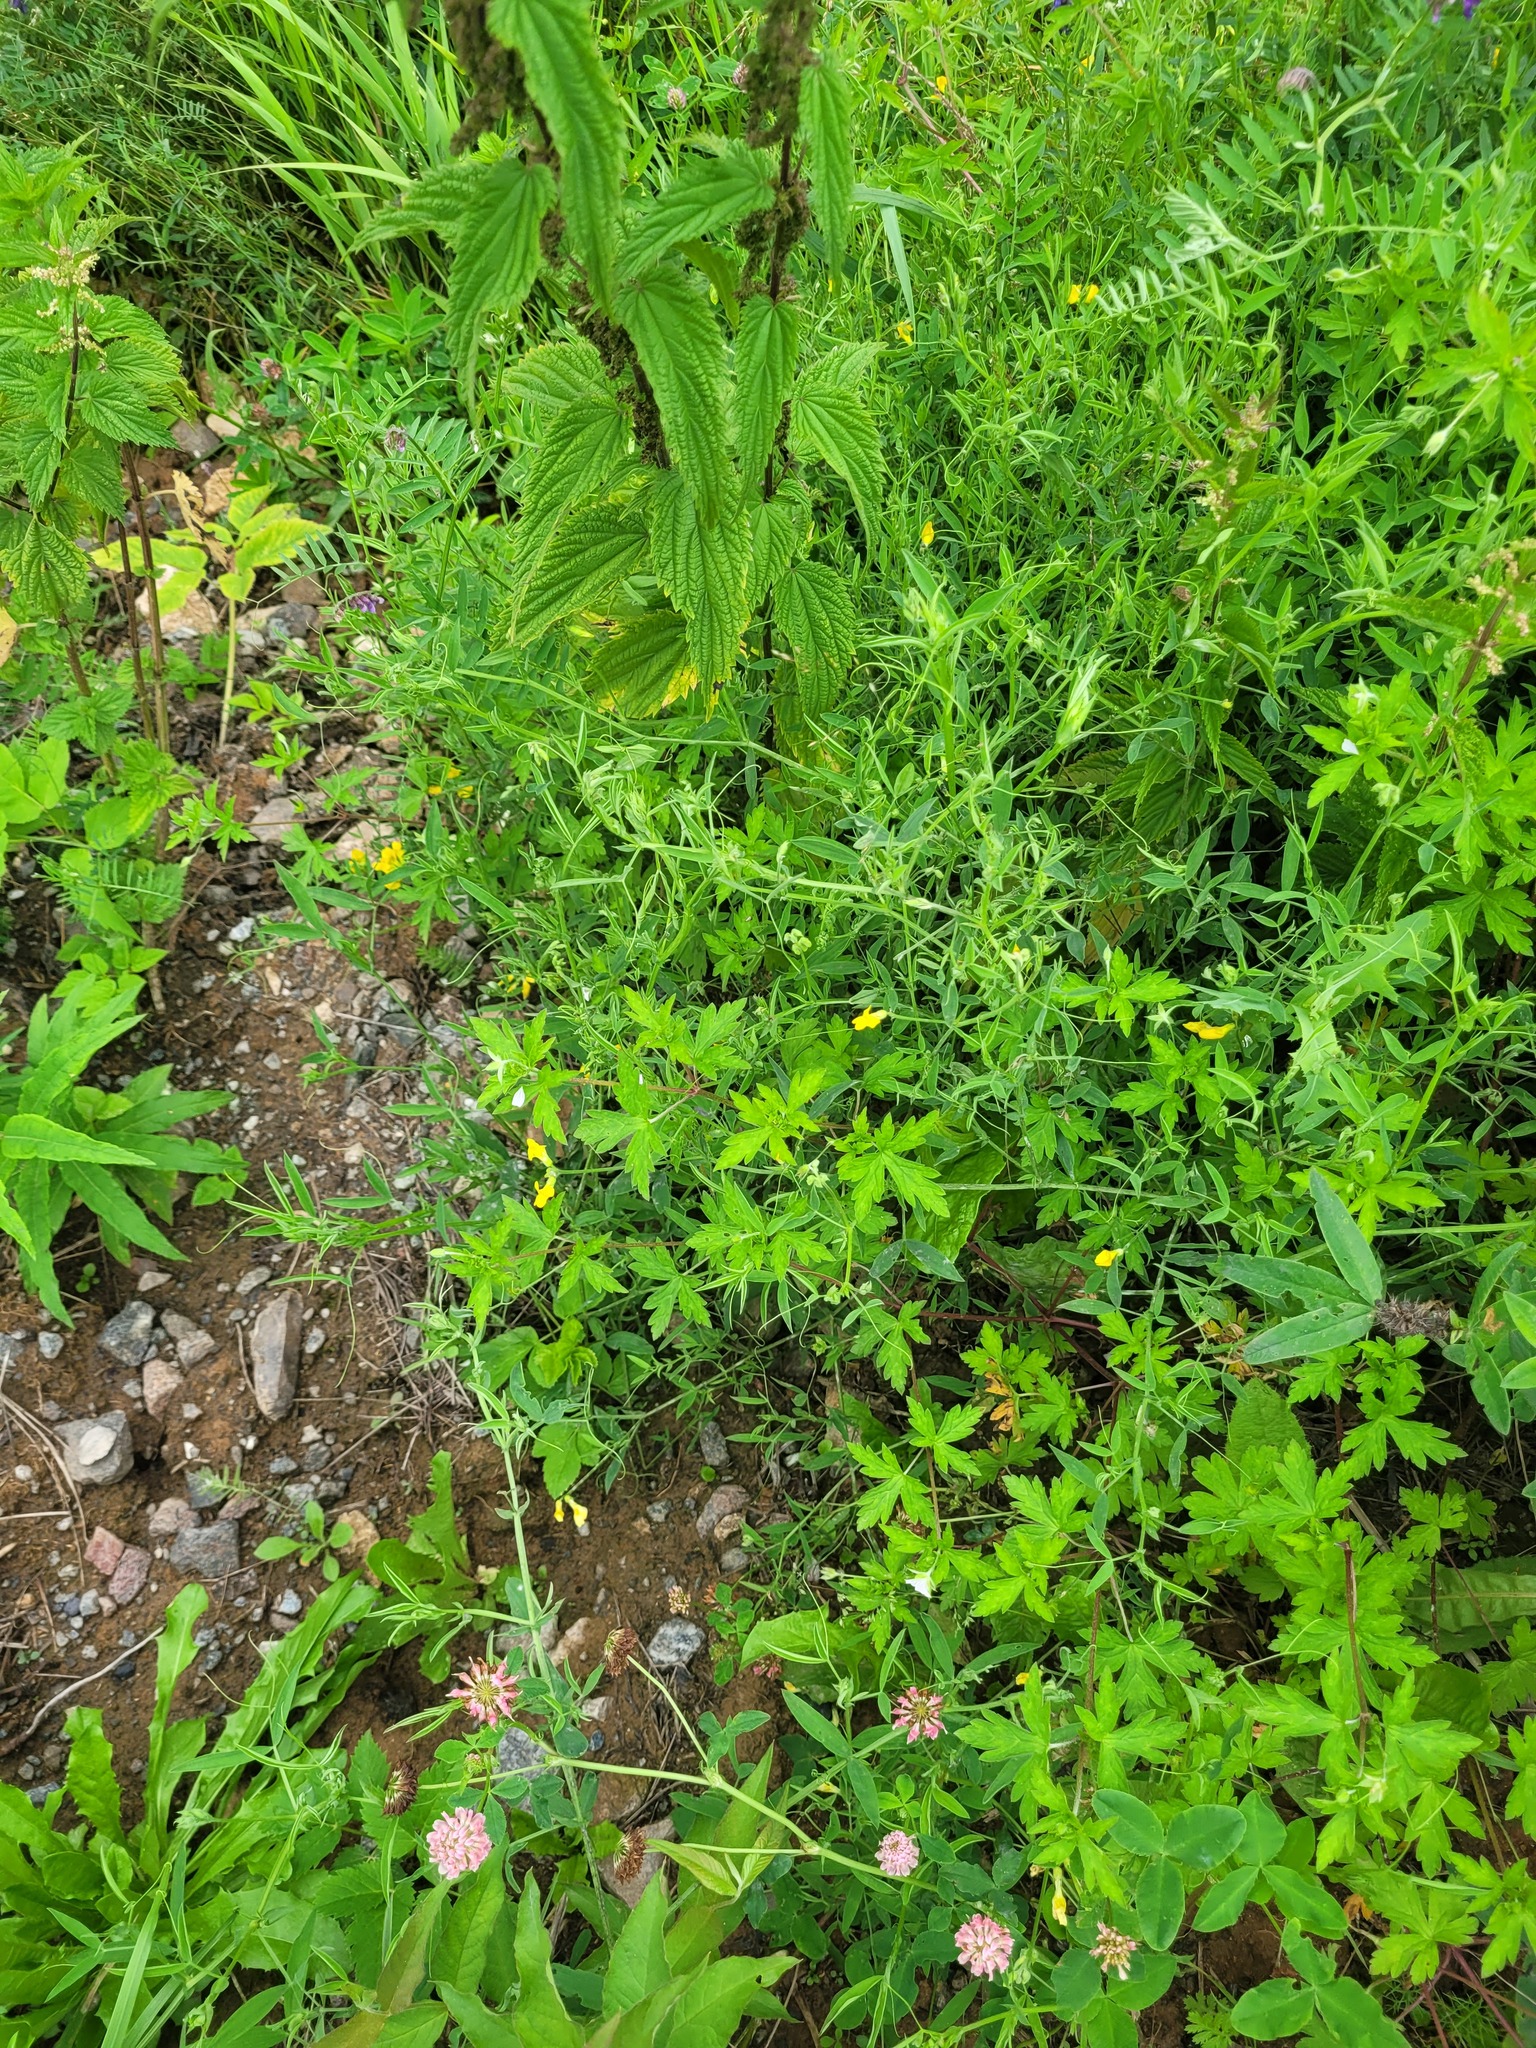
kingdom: Plantae
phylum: Tracheophyta
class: Magnoliopsida
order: Geraniales
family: Geraniaceae
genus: Geranium
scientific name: Geranium sibiricum
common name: Siberian crane's-bill
